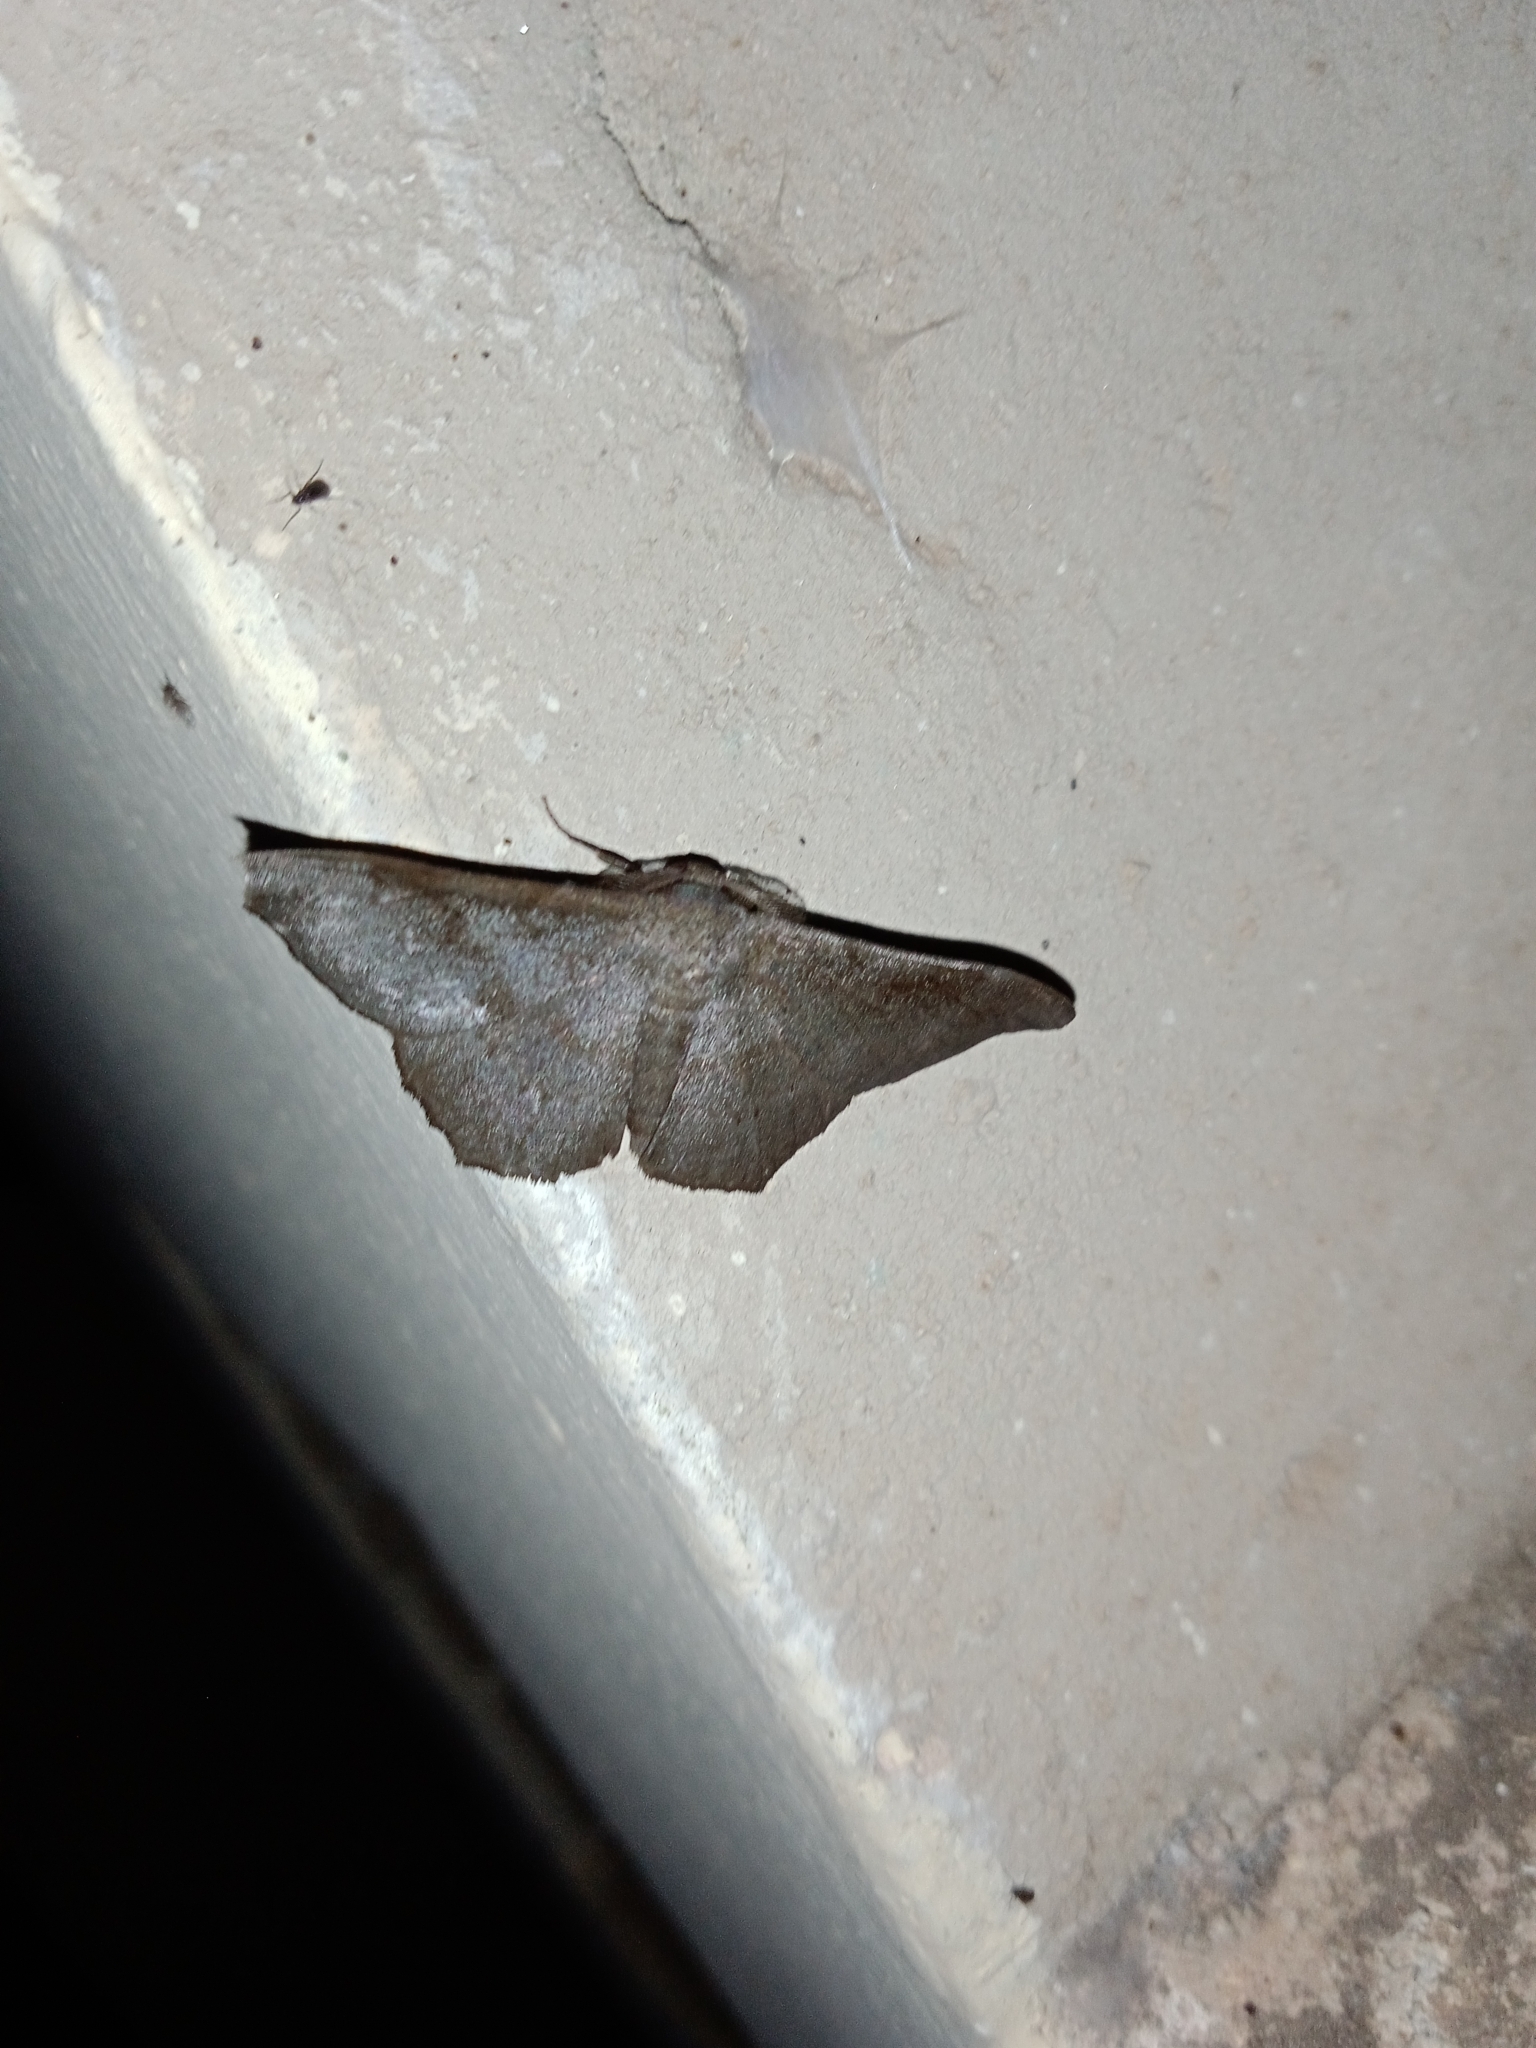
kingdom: Animalia
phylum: Arthropoda
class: Insecta
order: Lepidoptera
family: Geometridae
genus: Hyposidra
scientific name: Hyposidra talaca
